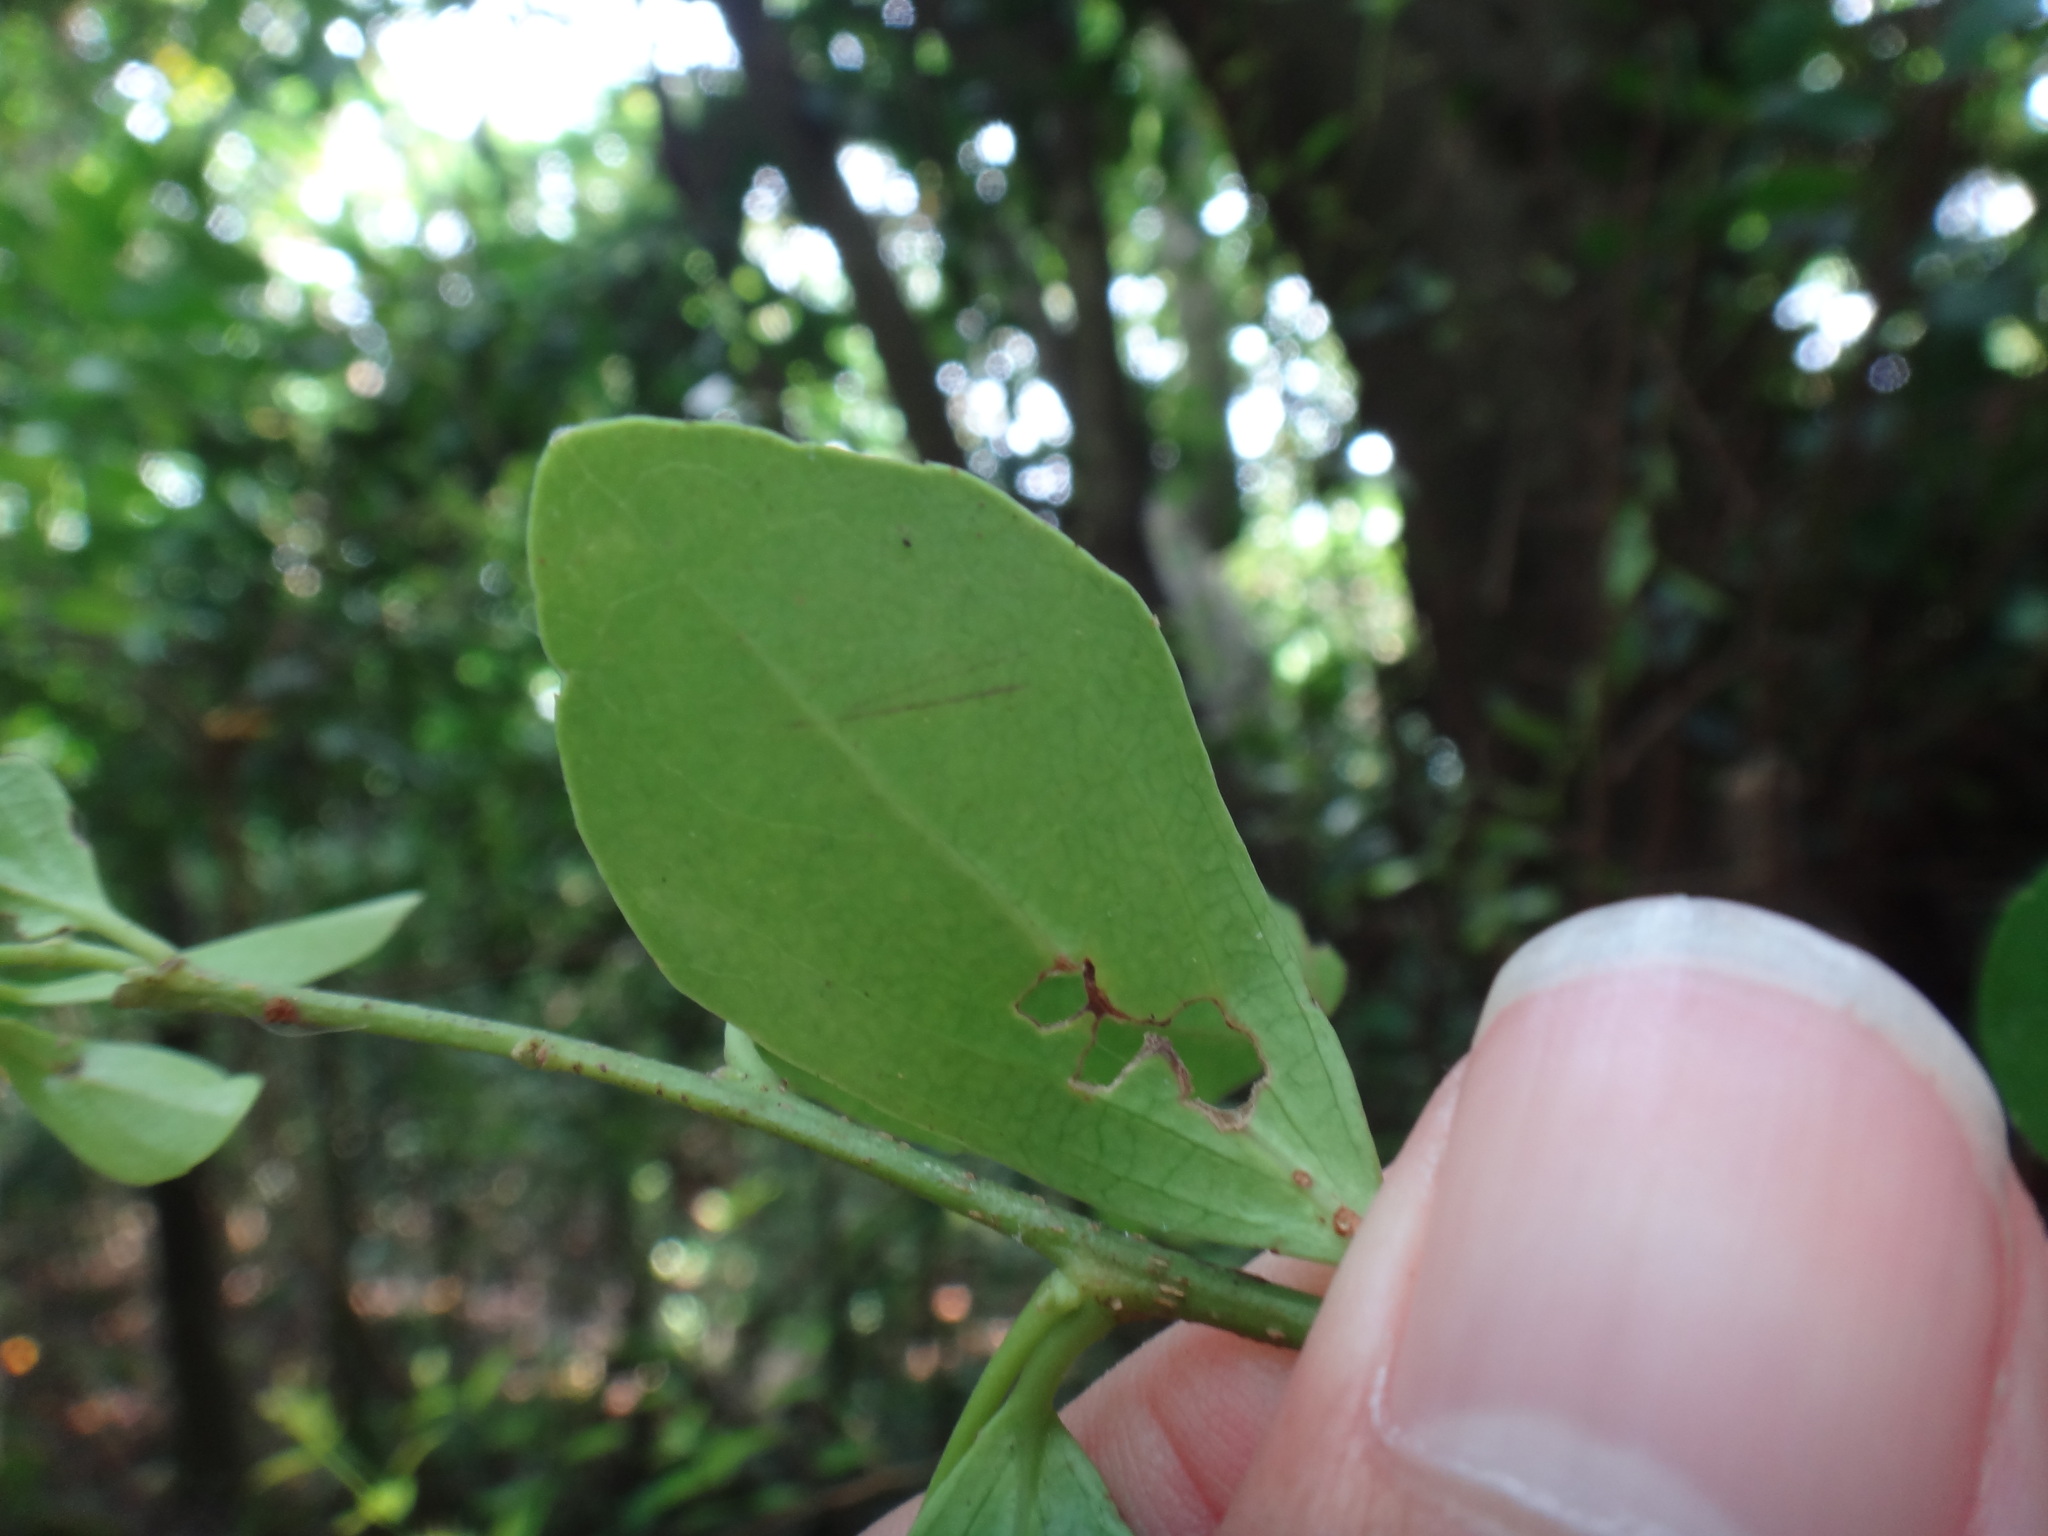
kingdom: Plantae
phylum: Tracheophyta
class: Magnoliopsida
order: Sapindales
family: Rutaceae
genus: Atalantia
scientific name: Atalantia buxifolia
